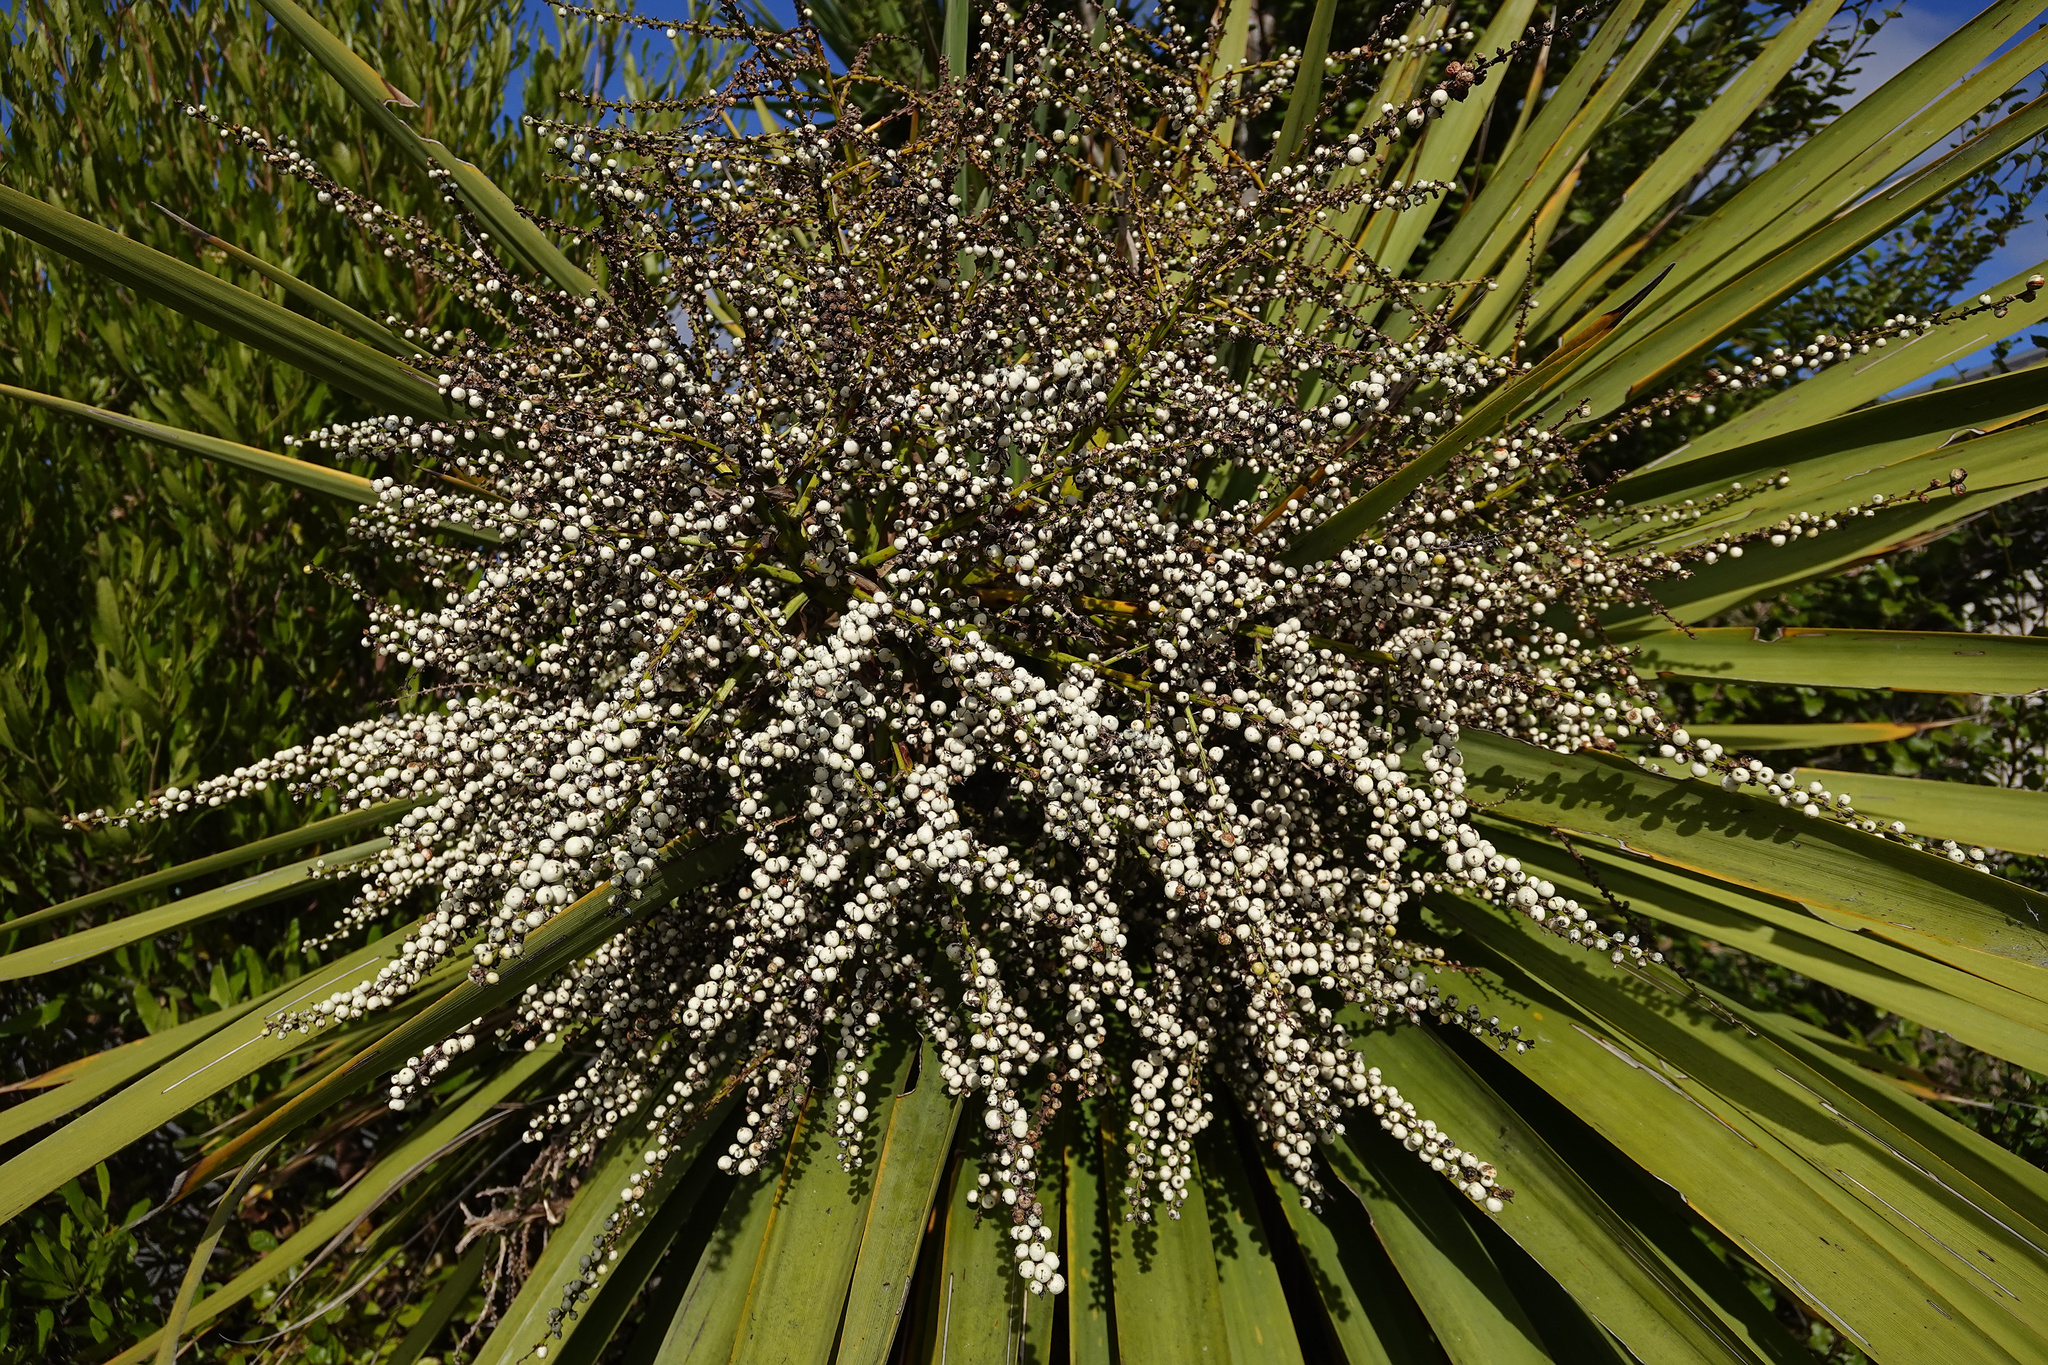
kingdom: Plantae
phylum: Tracheophyta
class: Liliopsida
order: Asparagales
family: Asparagaceae
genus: Cordyline
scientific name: Cordyline australis
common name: Cabbage-palm
